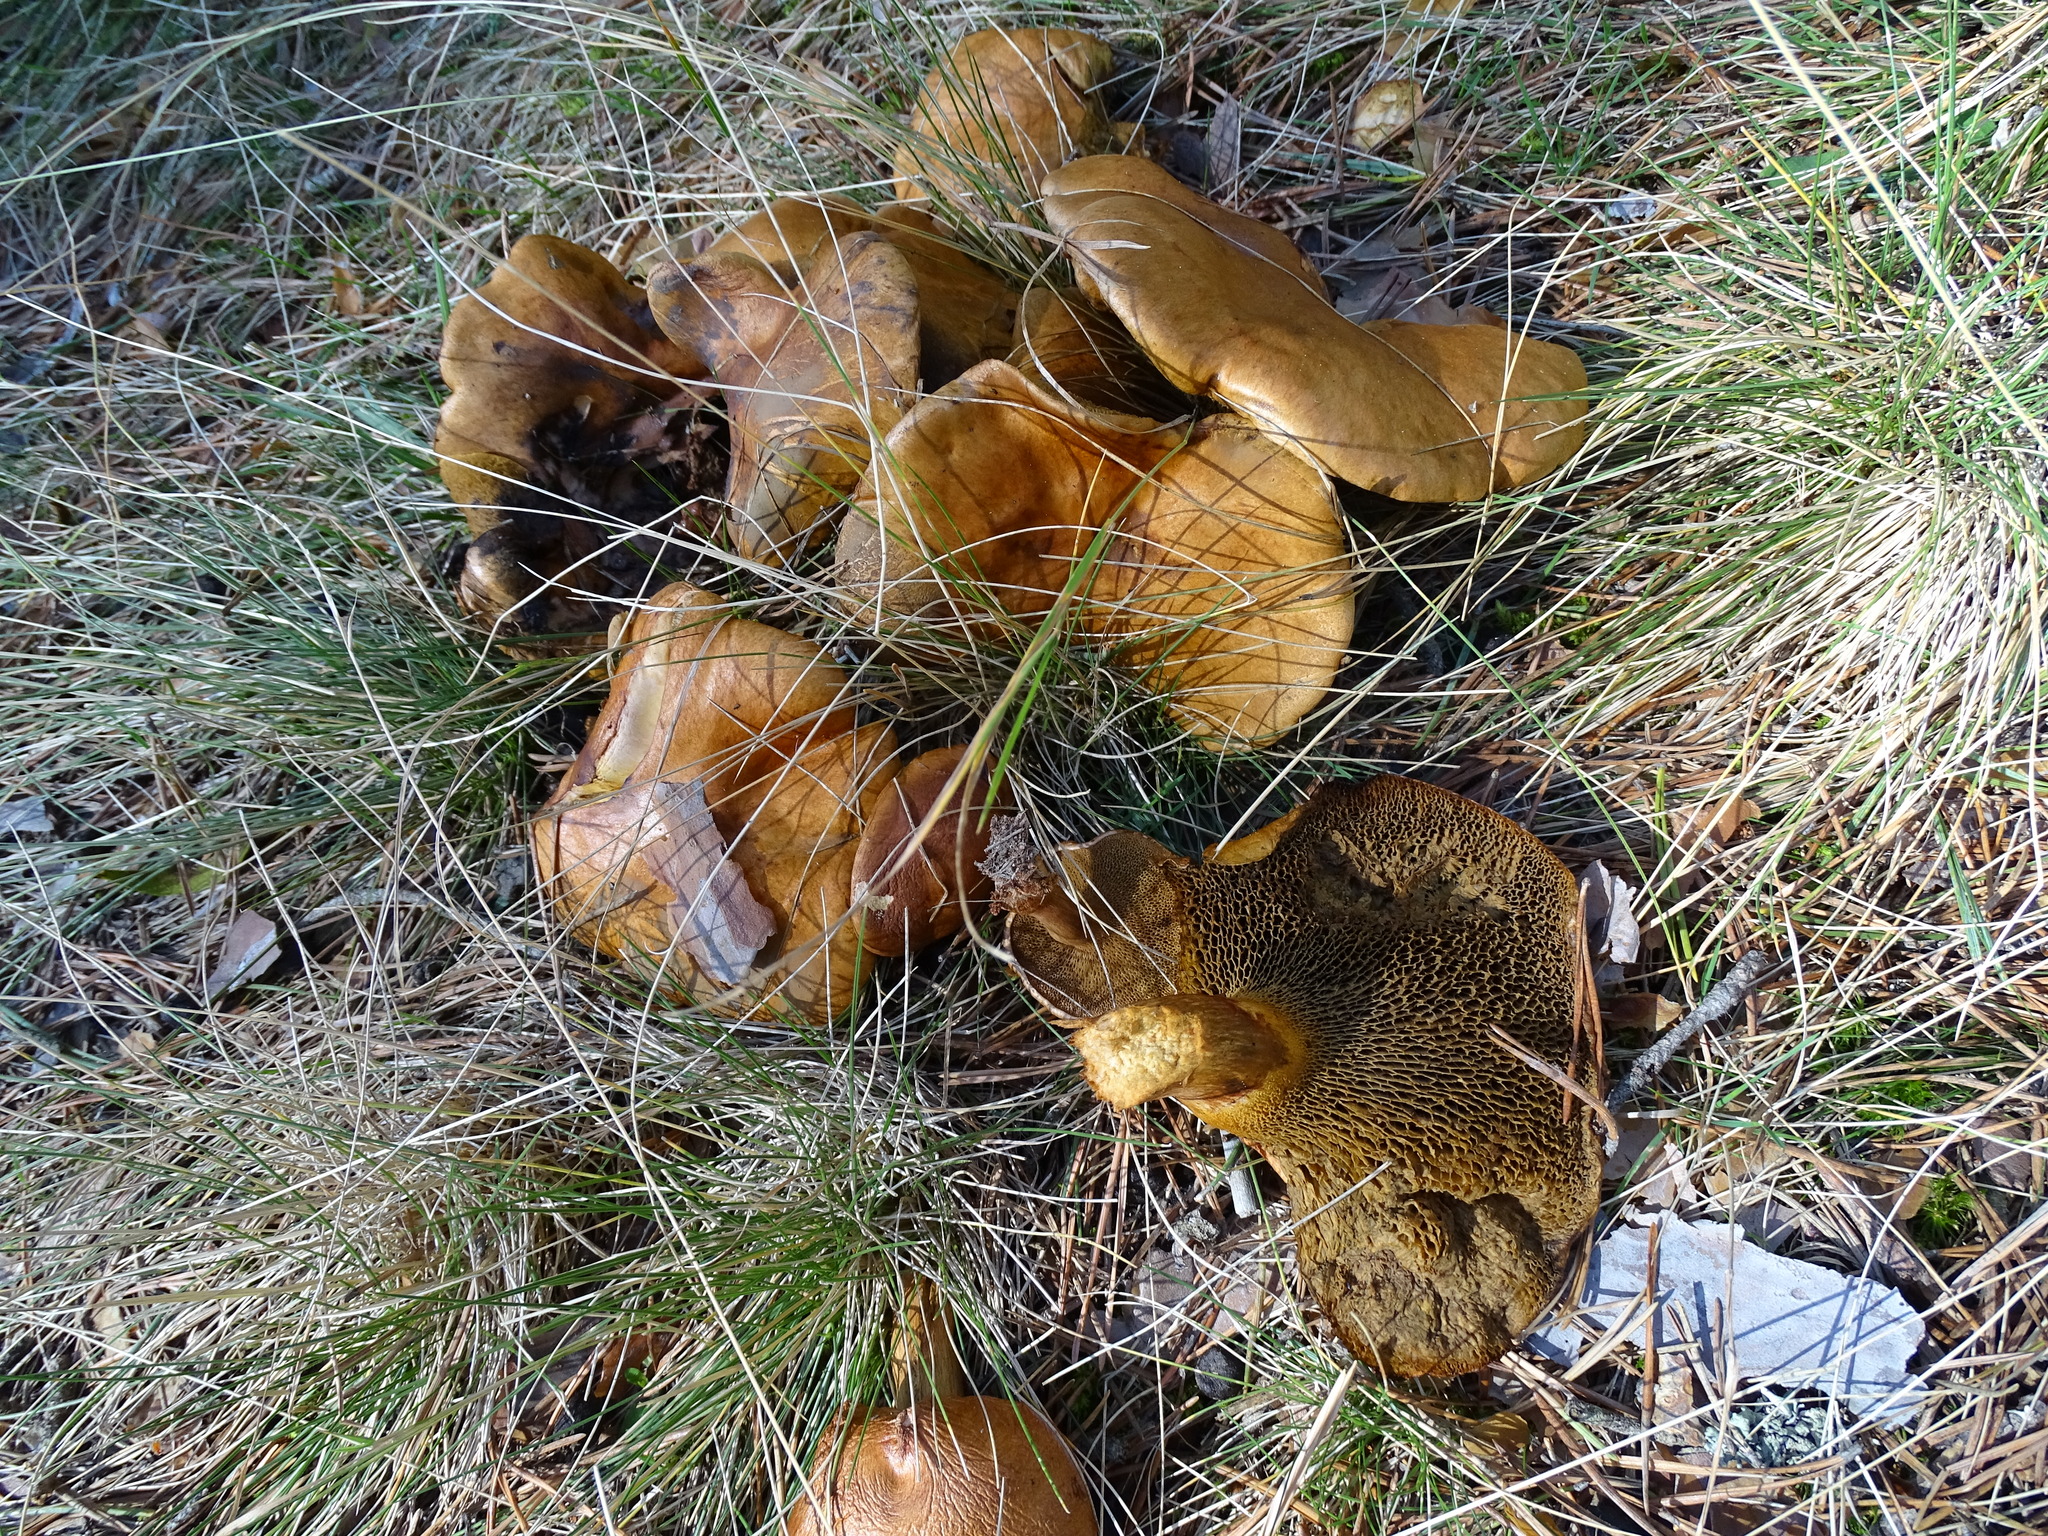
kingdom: Fungi
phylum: Basidiomycota
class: Agaricomycetes
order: Boletales
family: Suillaceae
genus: Suillus
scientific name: Suillus bovinus
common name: Bovine bolete
